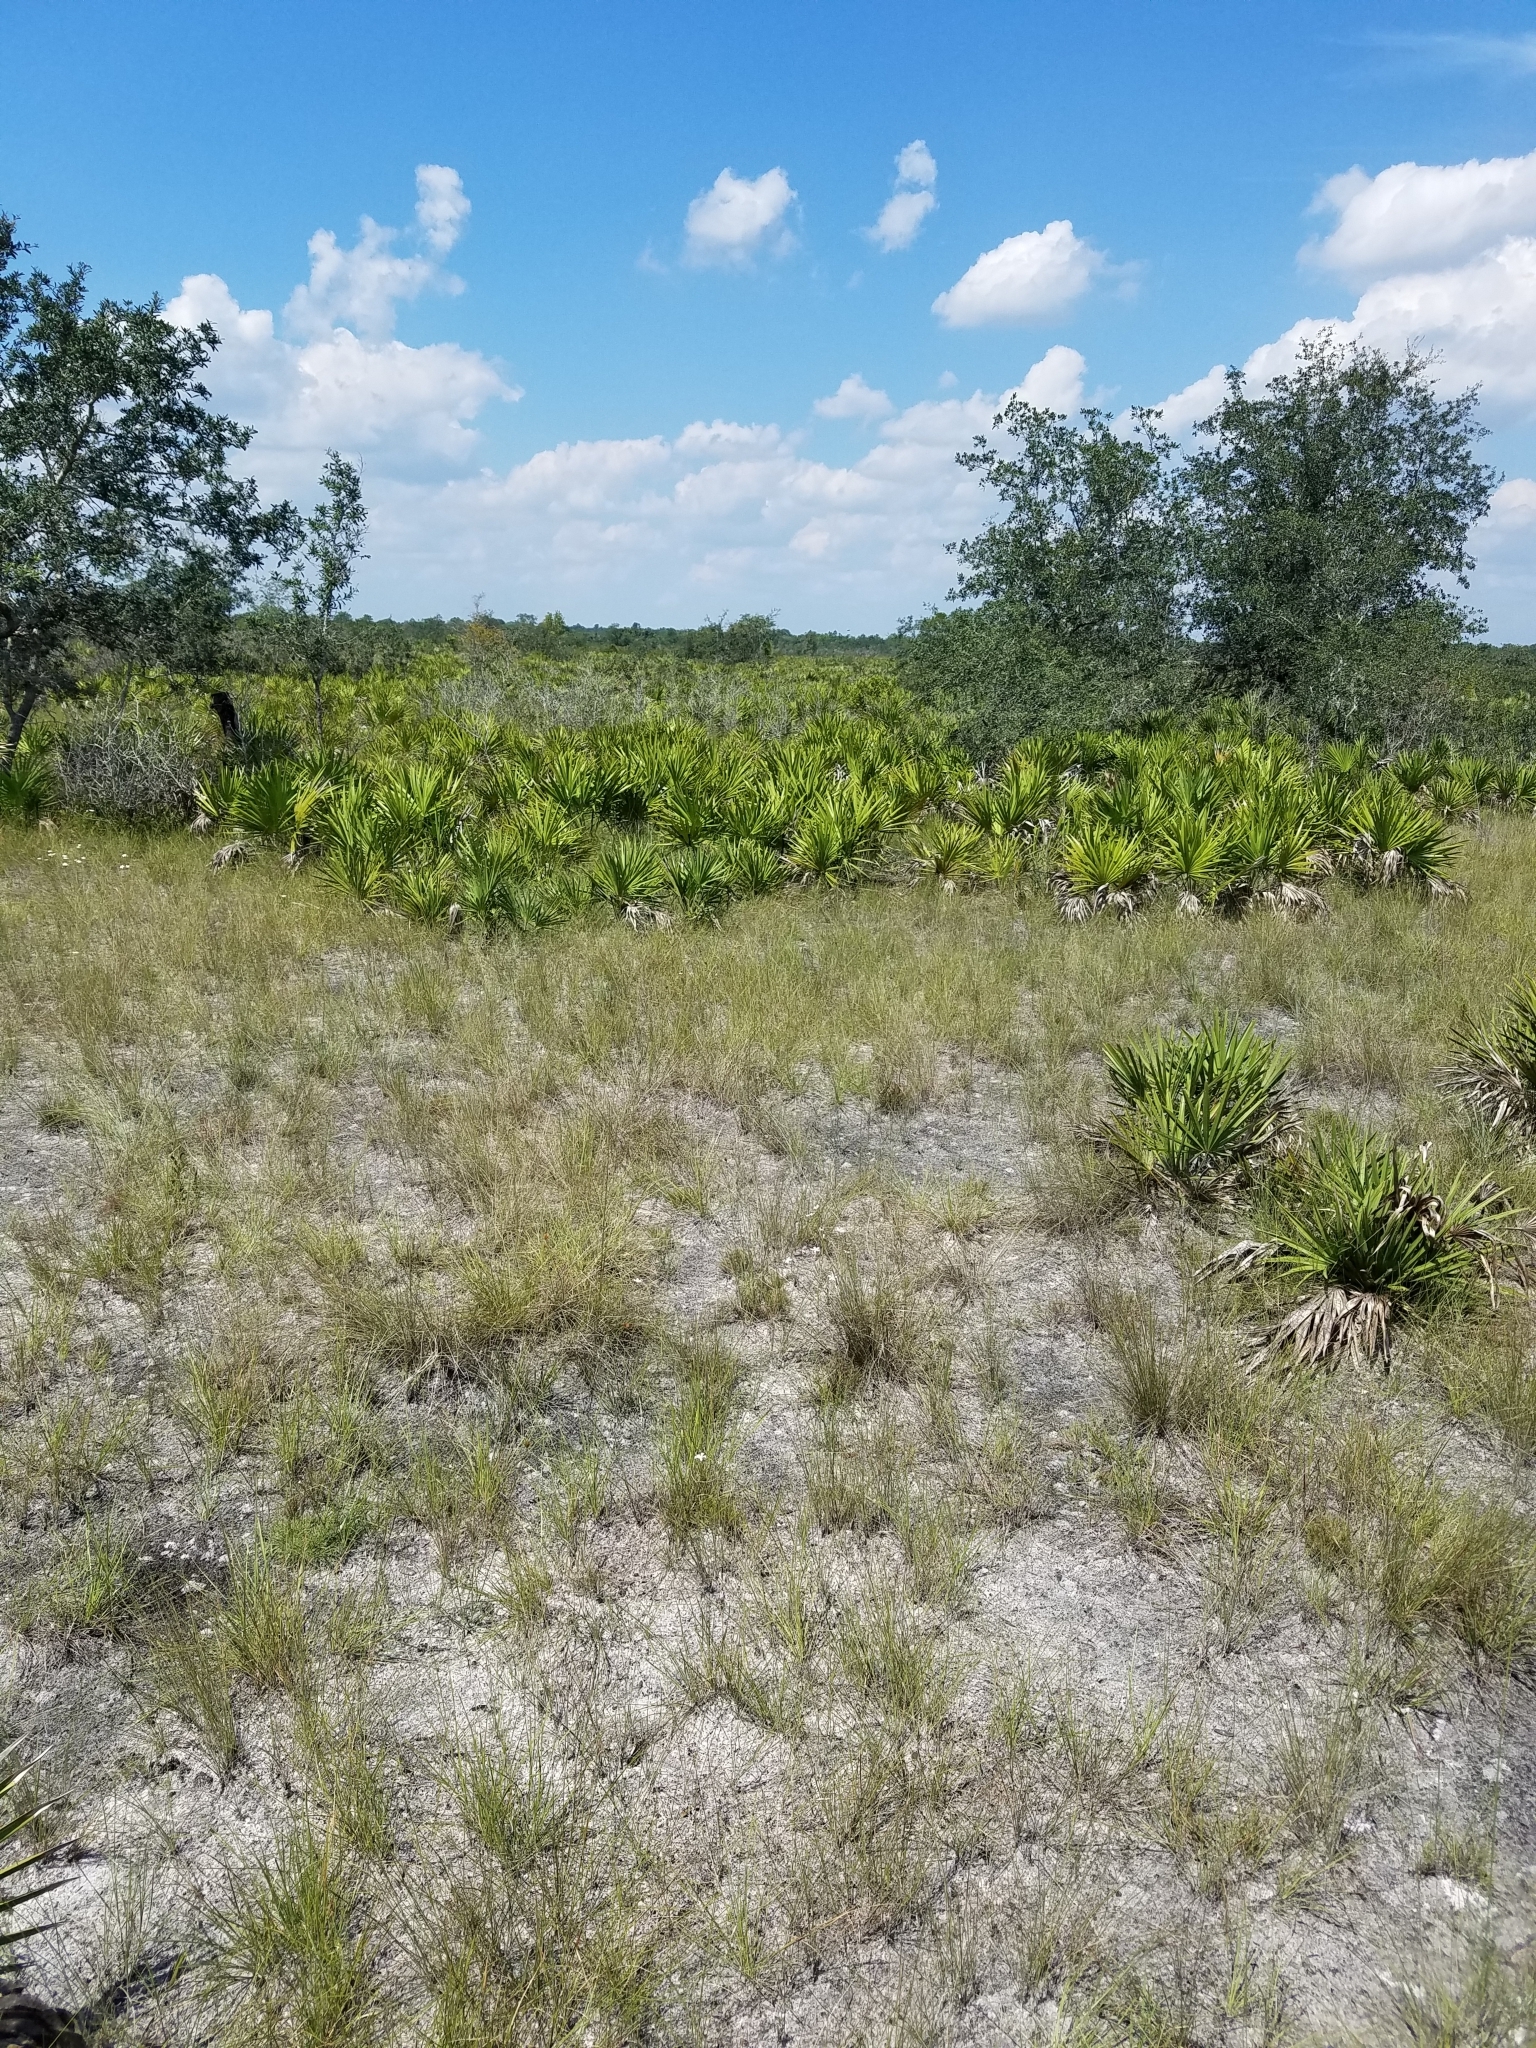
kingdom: Plantae
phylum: Tracheophyta
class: Liliopsida
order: Poales
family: Cyperaceae
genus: Rhynchospora
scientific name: Rhynchospora megaplumosa
